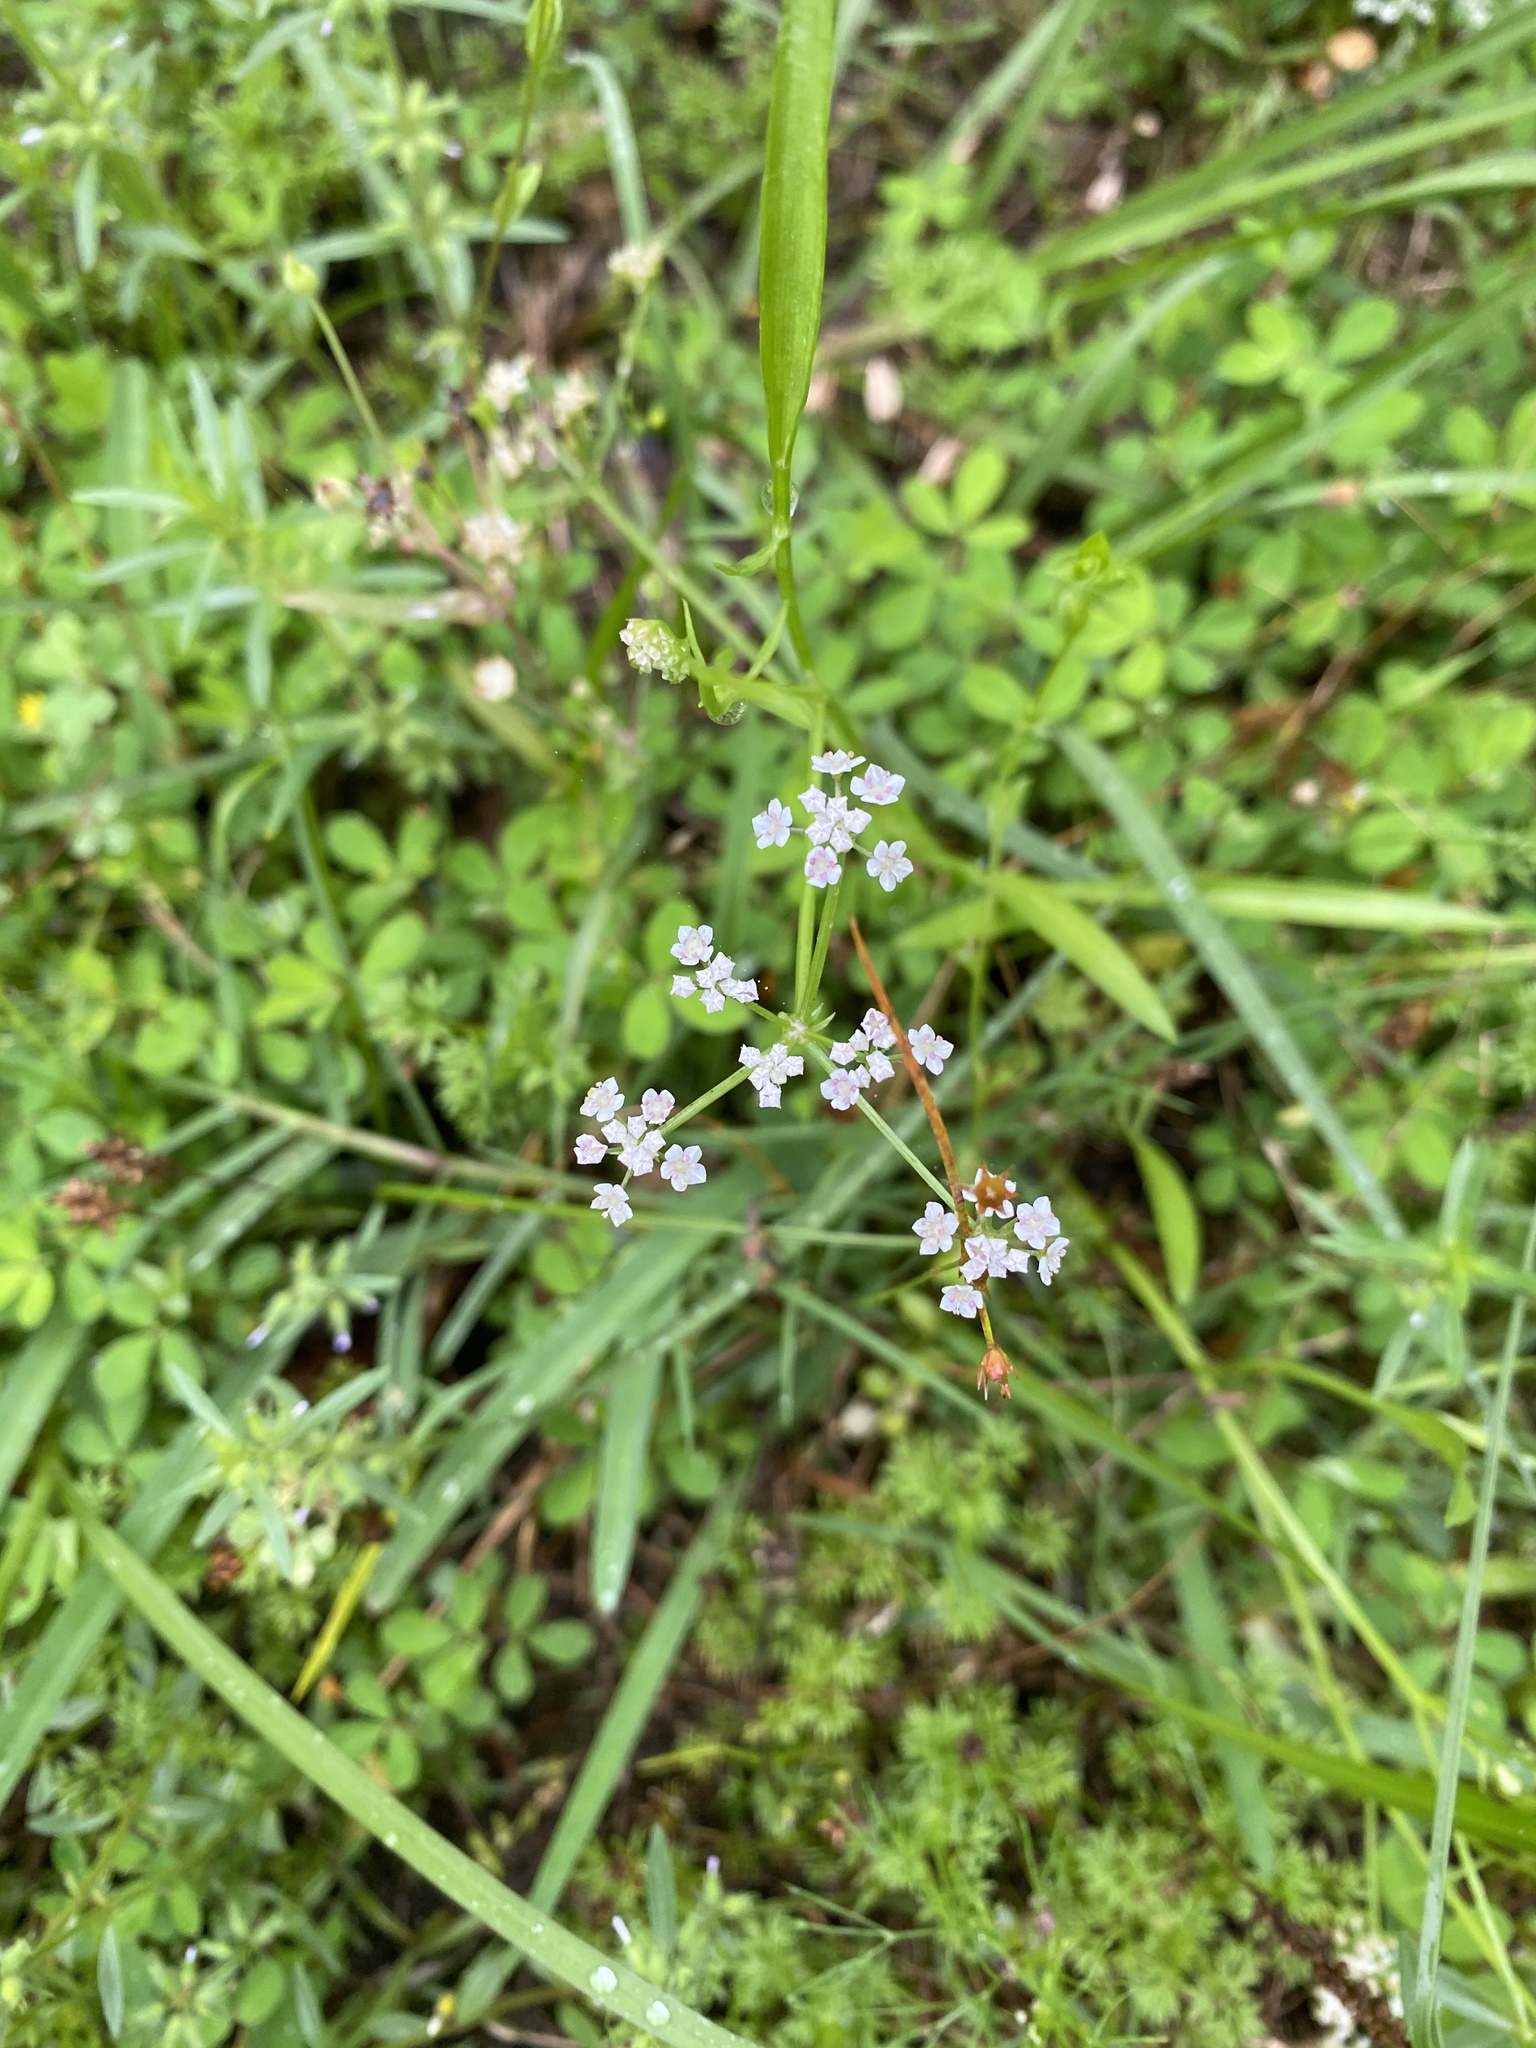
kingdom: Plantae
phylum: Tracheophyta
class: Magnoliopsida
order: Apiales
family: Apiaceae
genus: Torilis
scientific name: Torilis arvensis
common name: Spreading hedge-parsley
